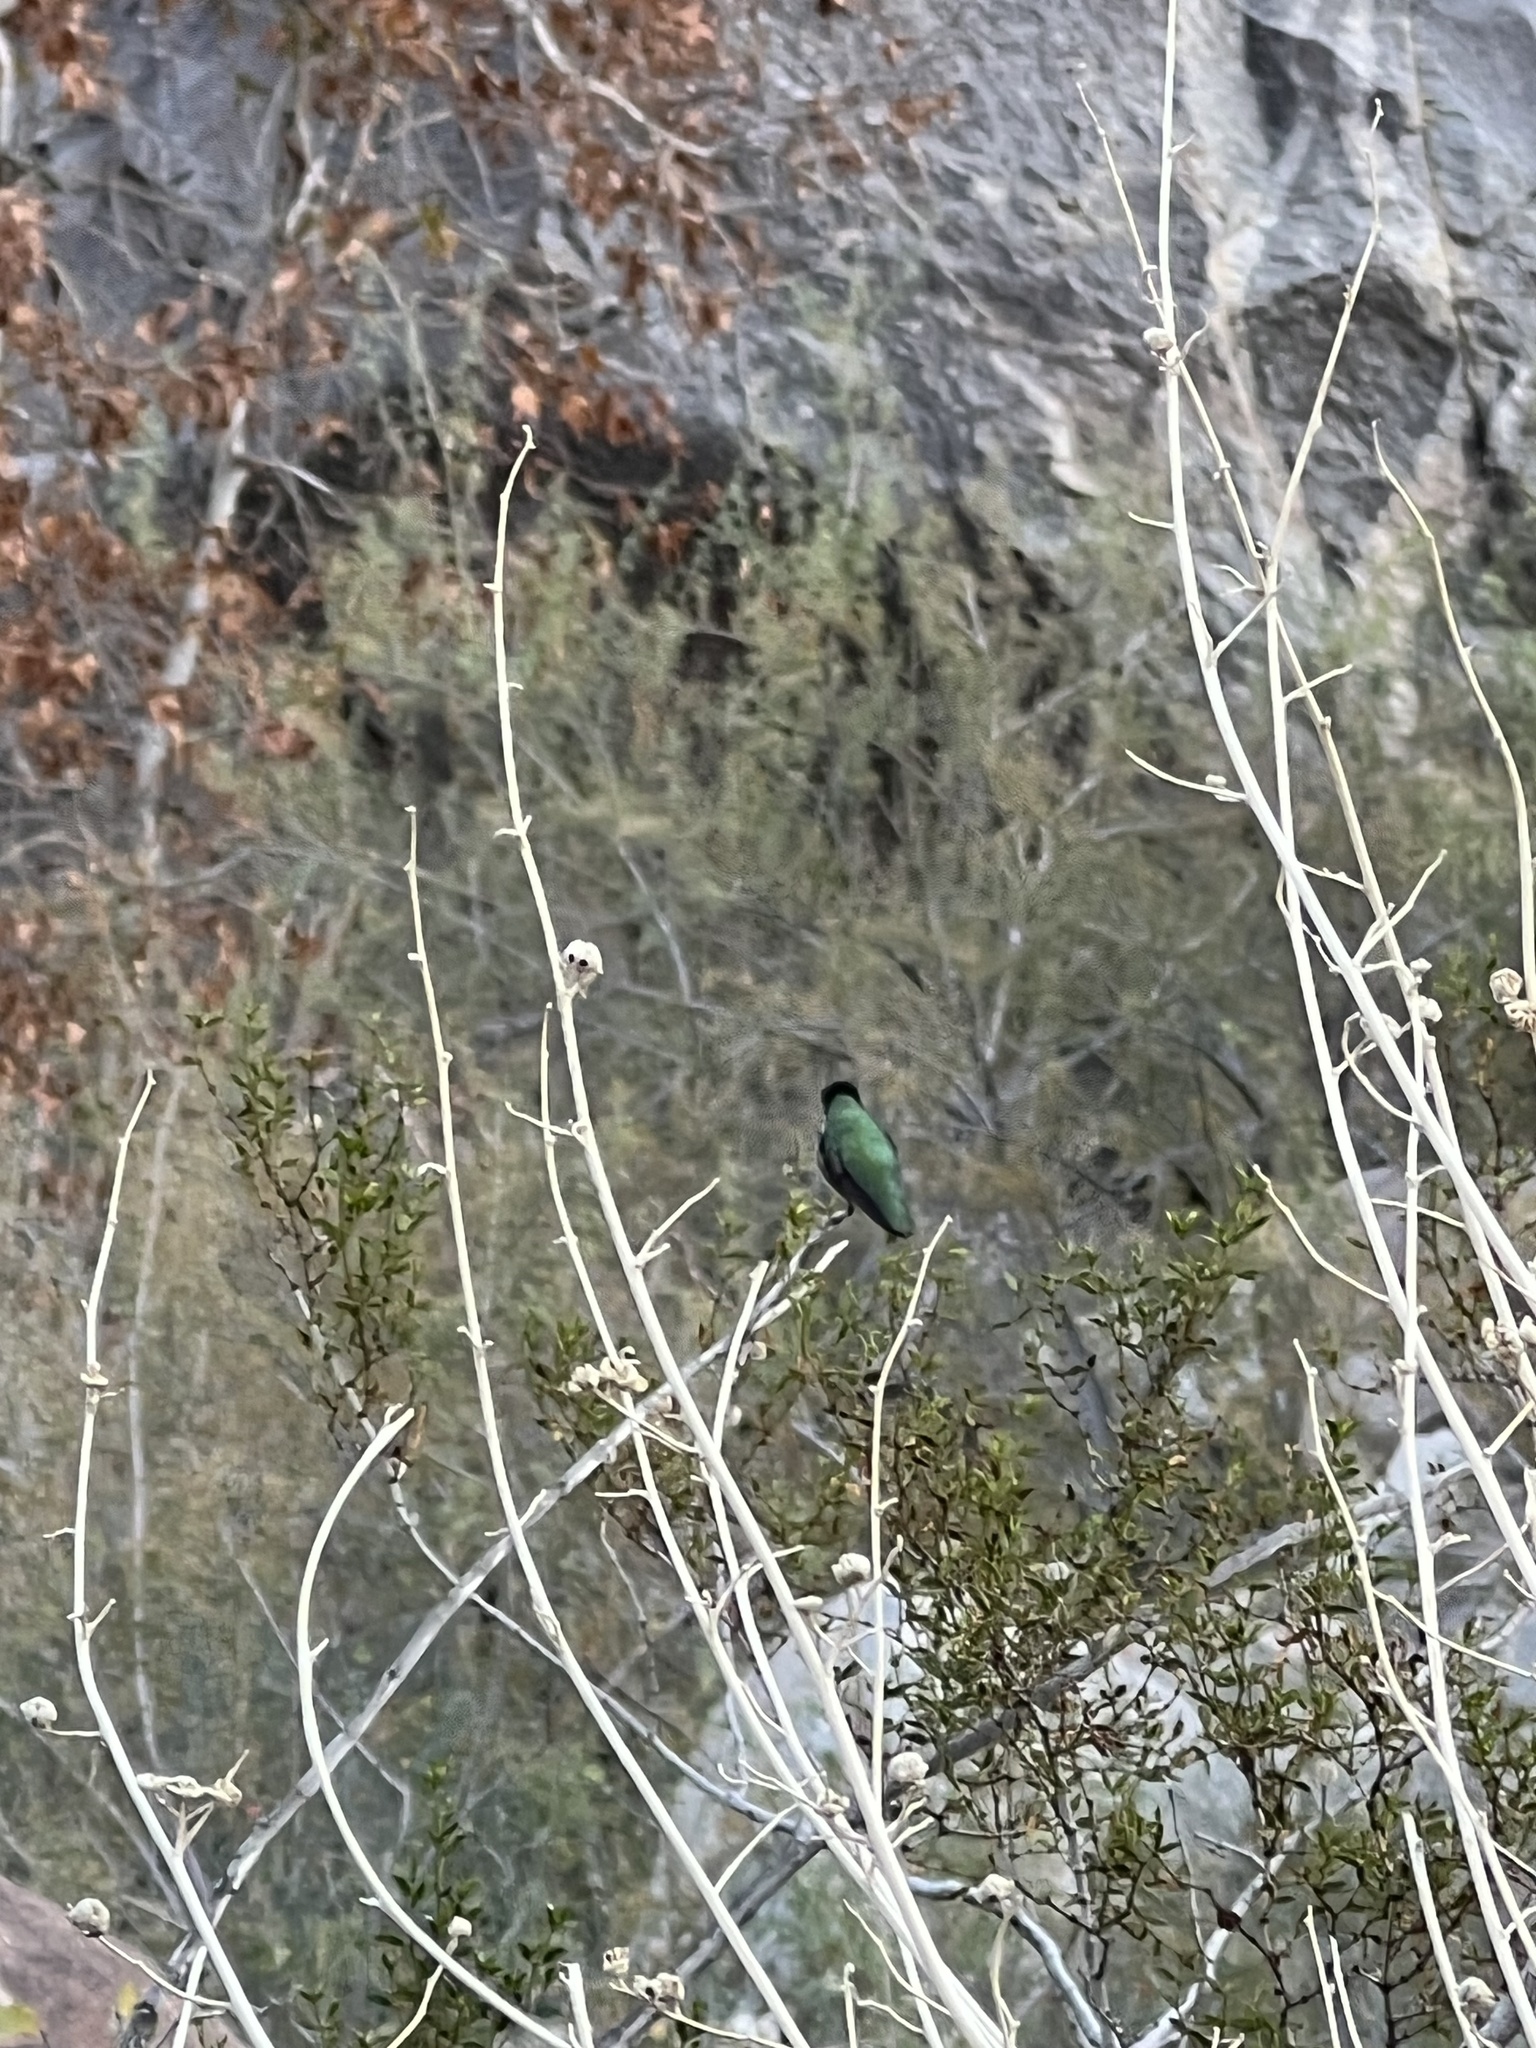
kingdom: Animalia
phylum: Chordata
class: Aves
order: Apodiformes
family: Trochilidae
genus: Calypte
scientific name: Calypte costae
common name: Costa's hummingbird
